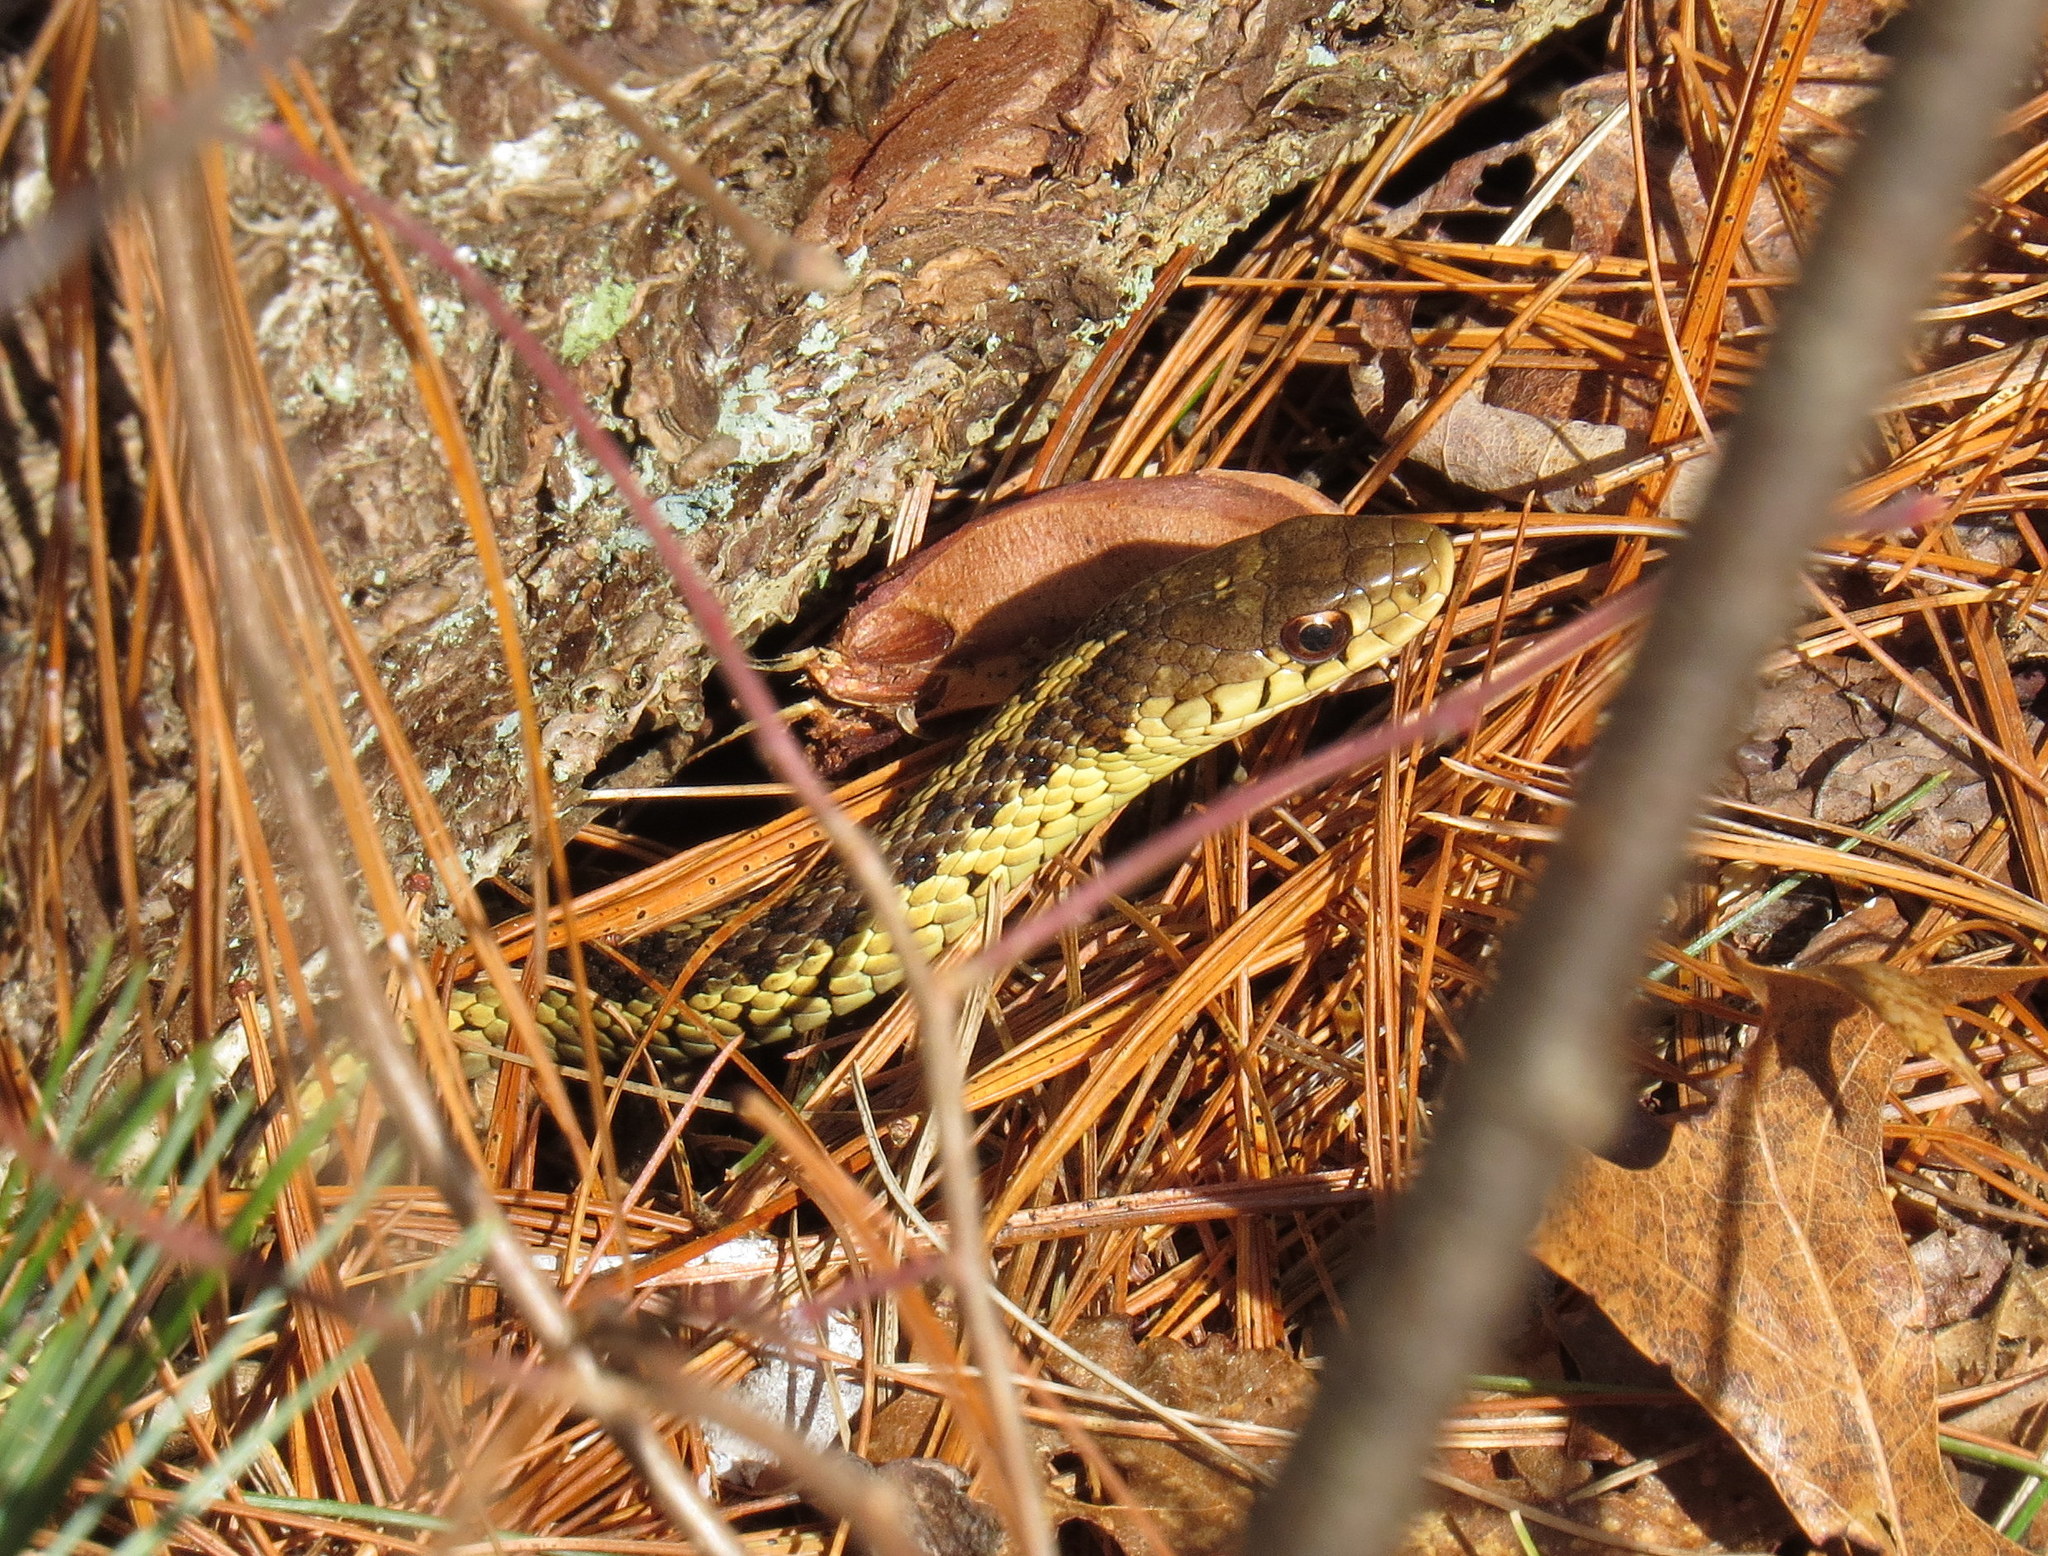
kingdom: Animalia
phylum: Chordata
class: Squamata
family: Colubridae
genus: Thamnophis
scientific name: Thamnophis sirtalis
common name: Common garter snake
